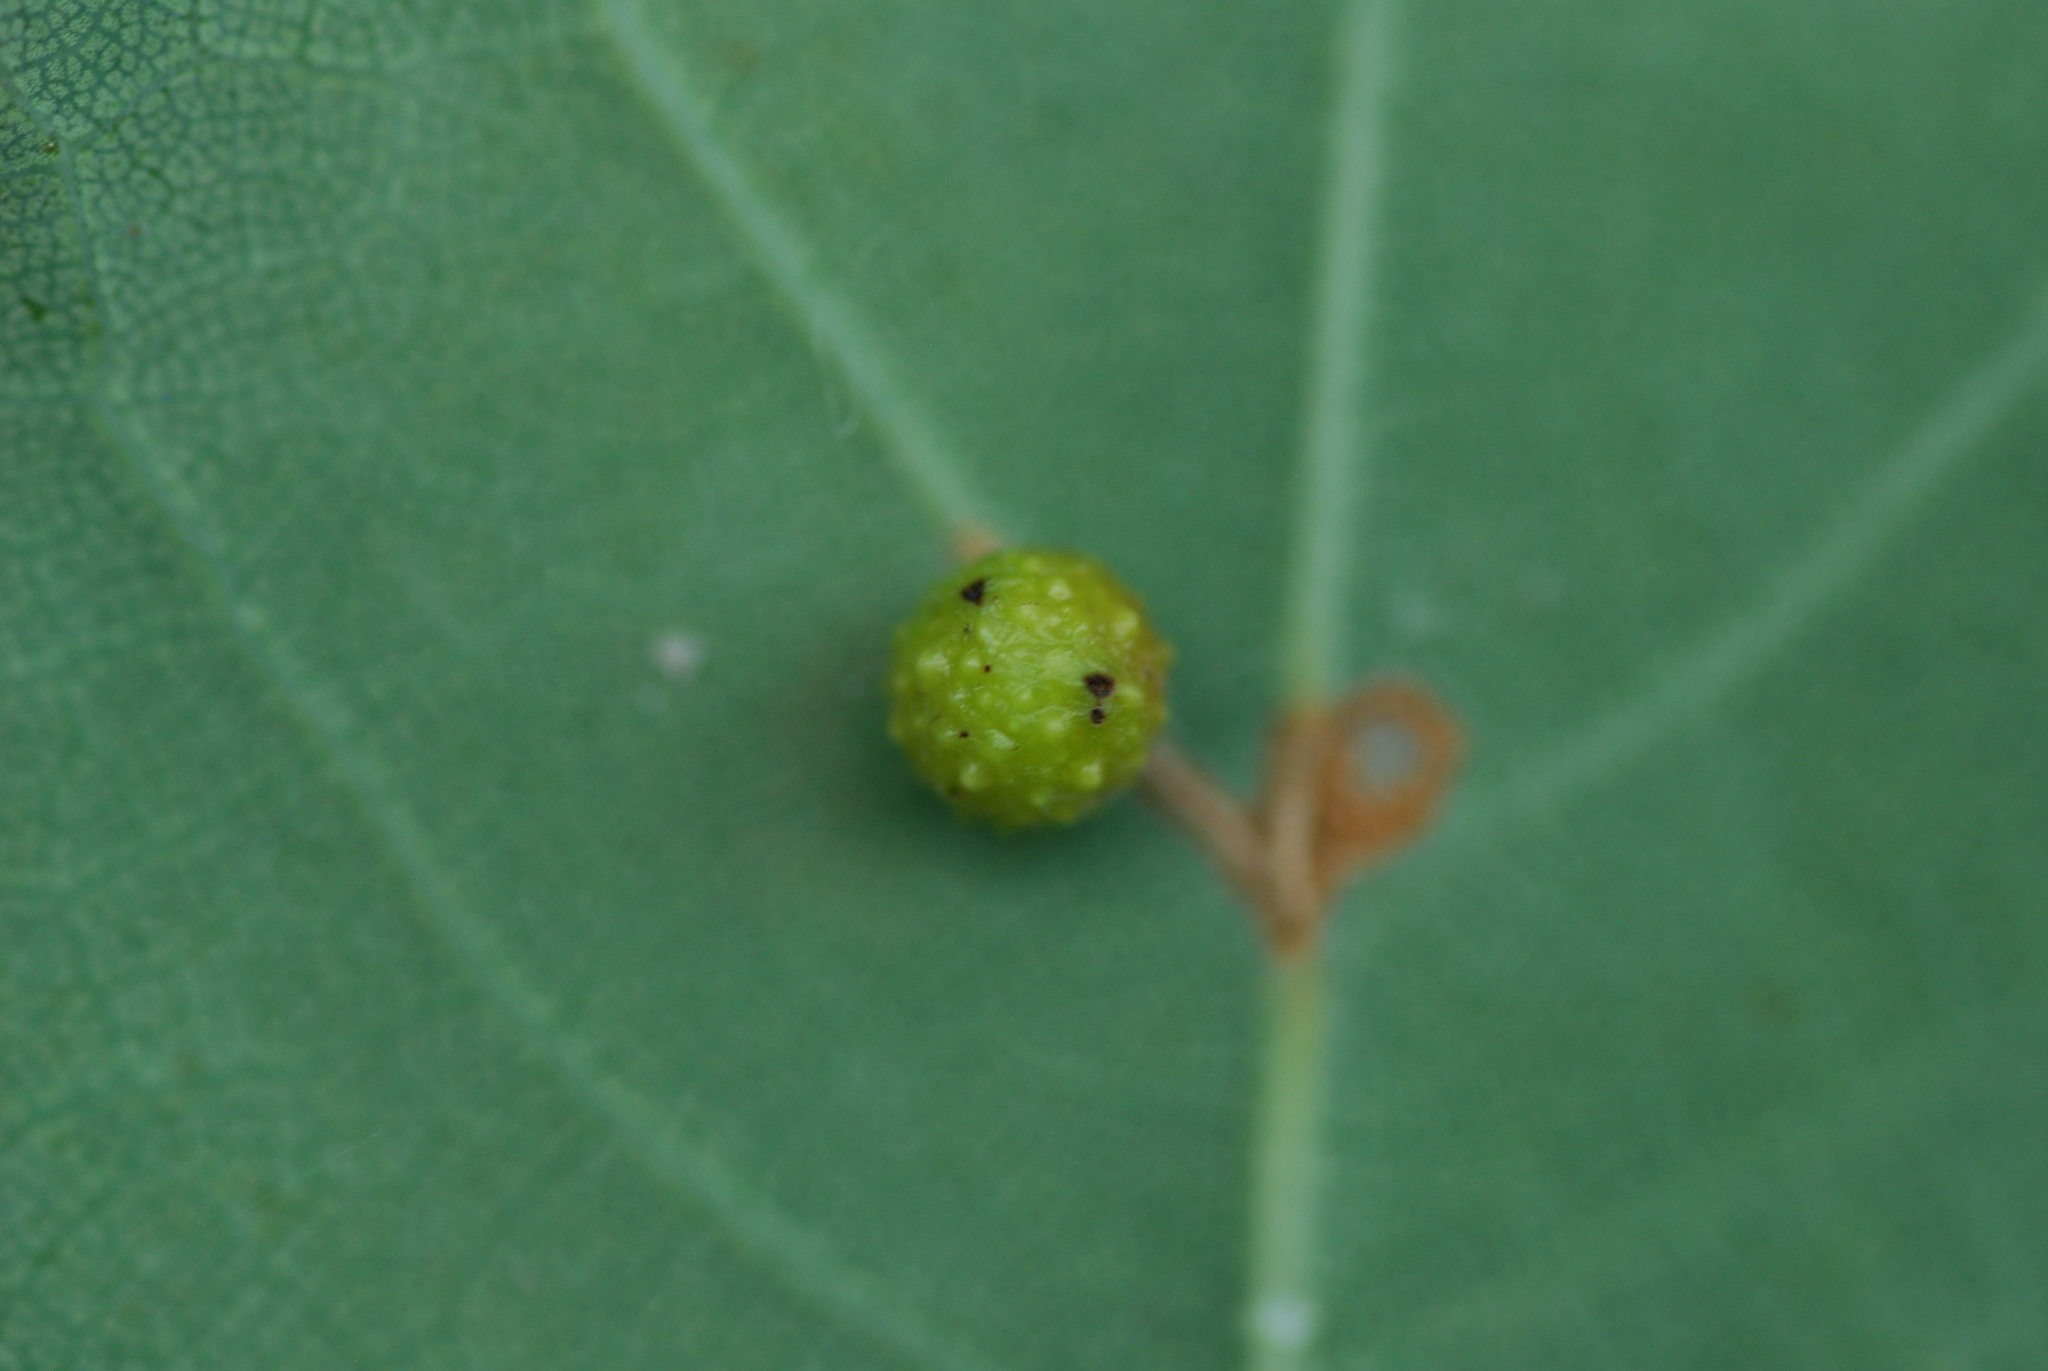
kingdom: Animalia
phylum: Arthropoda
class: Insecta
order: Hymenoptera
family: Cynipidae
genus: Cynips
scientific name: Cynips quercusfolii
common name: Cherry gall
